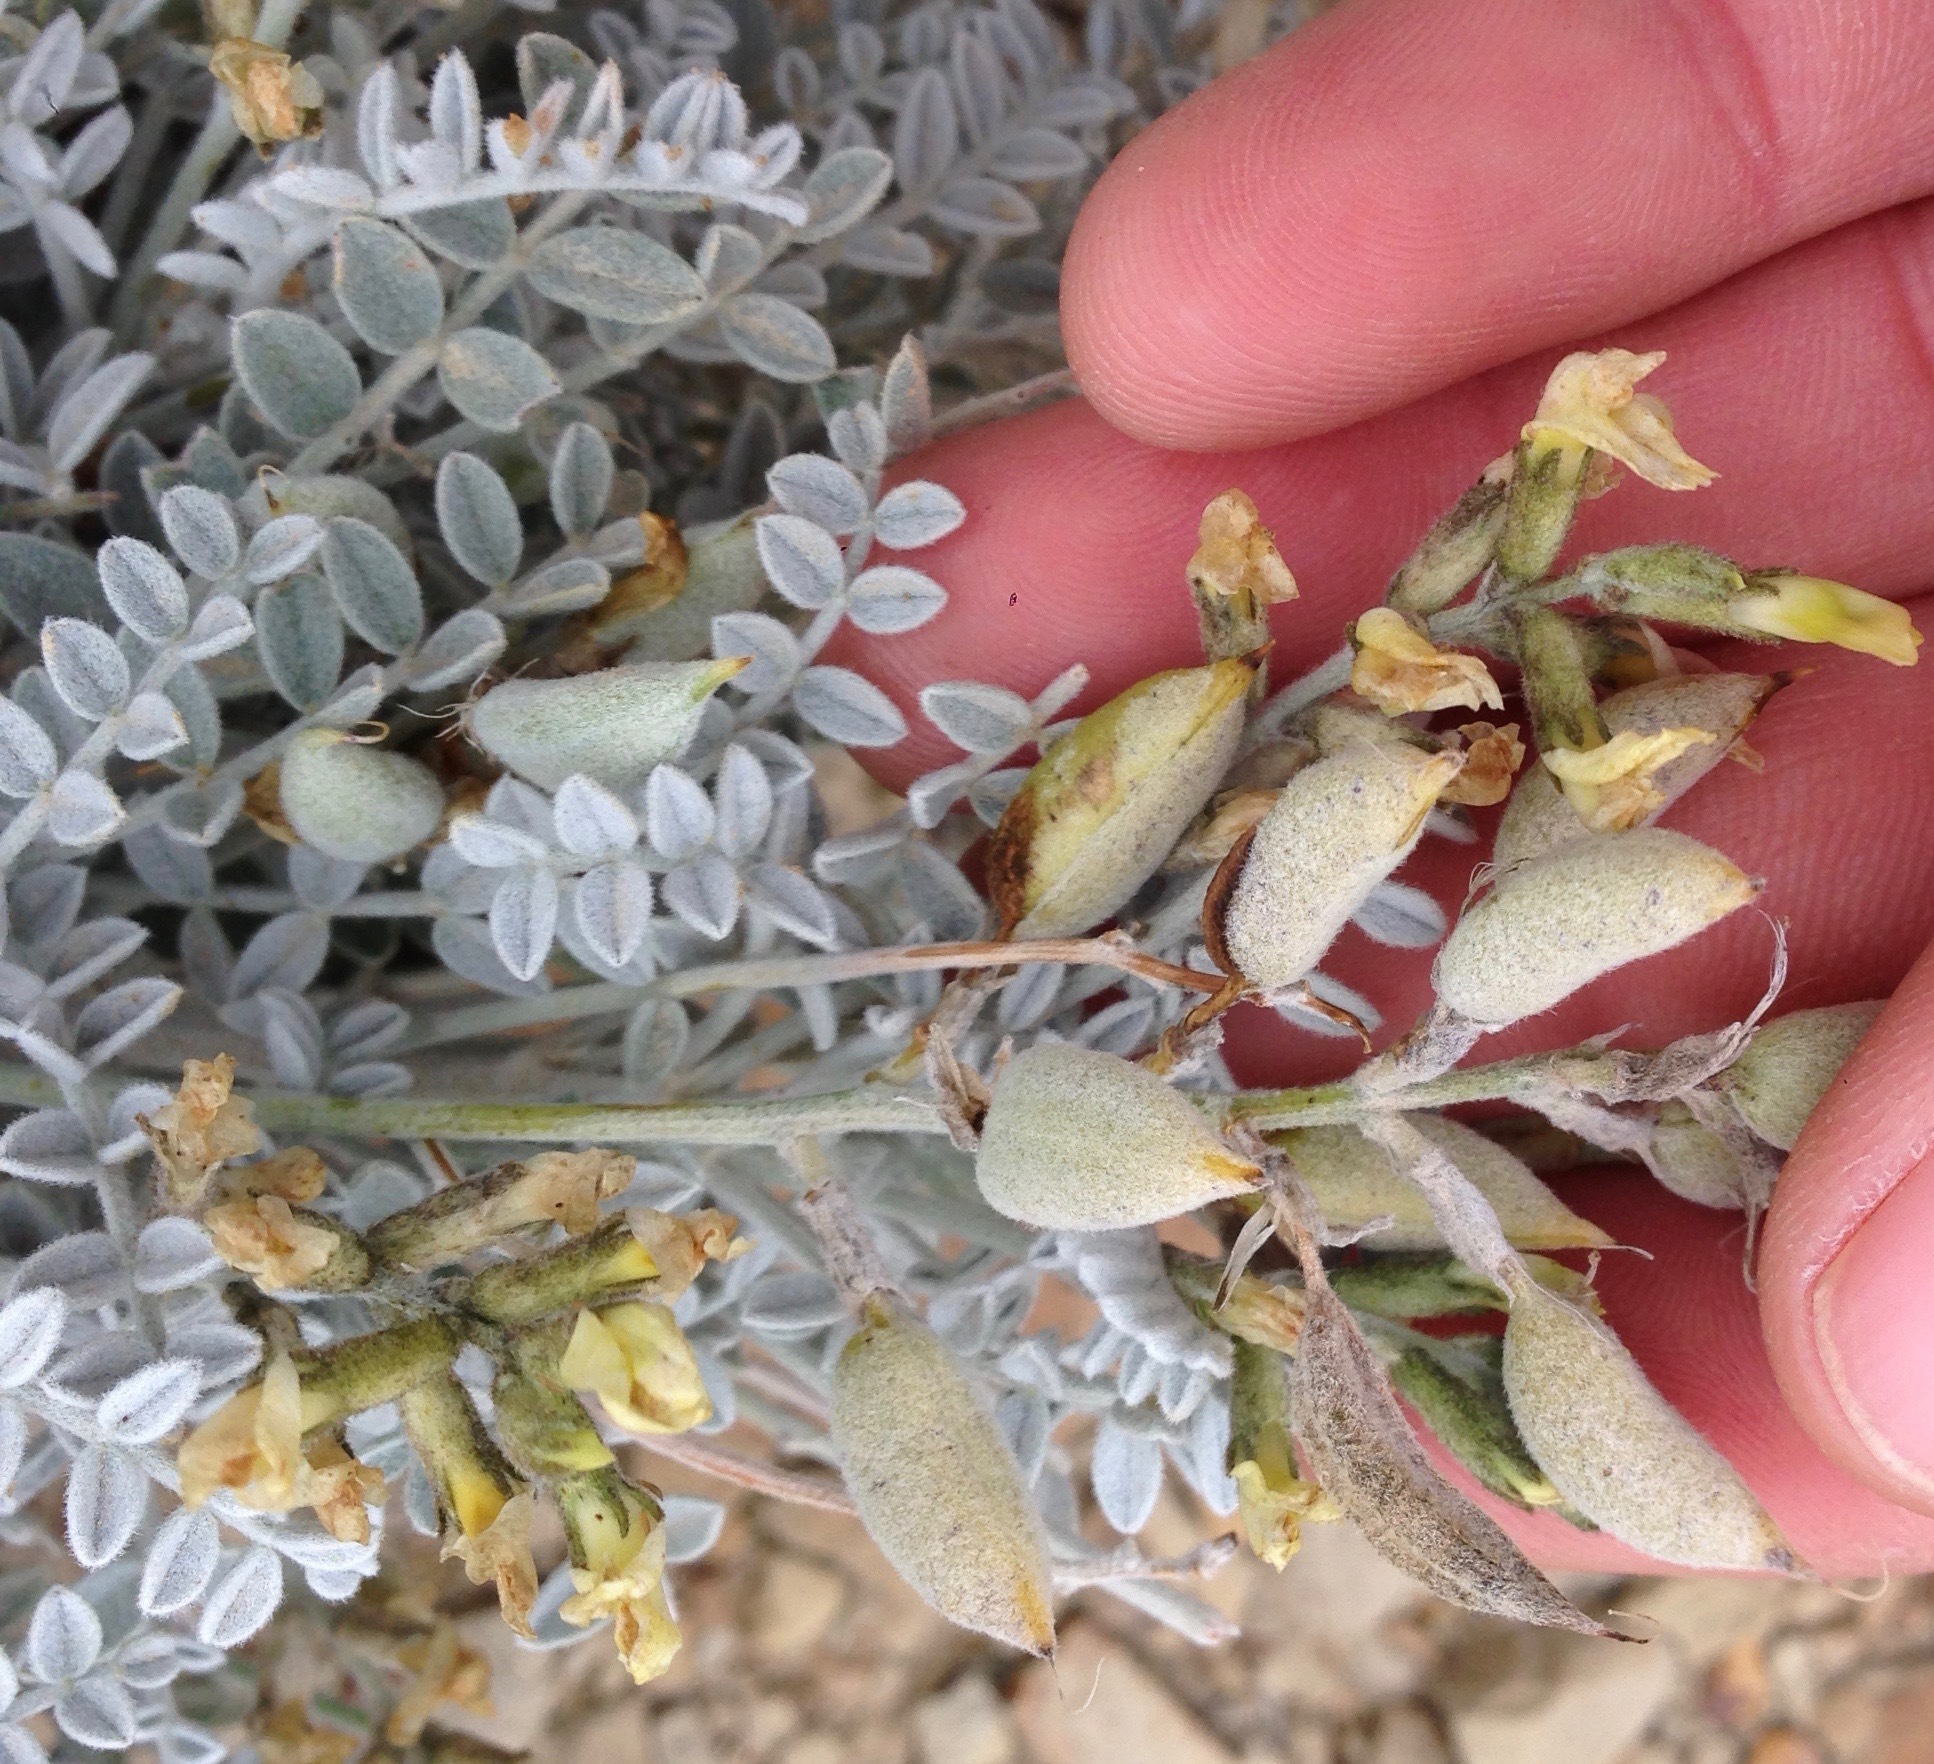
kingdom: Plantae
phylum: Tracheophyta
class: Magnoliopsida
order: Fabales
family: Fabaceae
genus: Astragalus
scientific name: Astragalus traskiae
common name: Trask's milk-vetch
